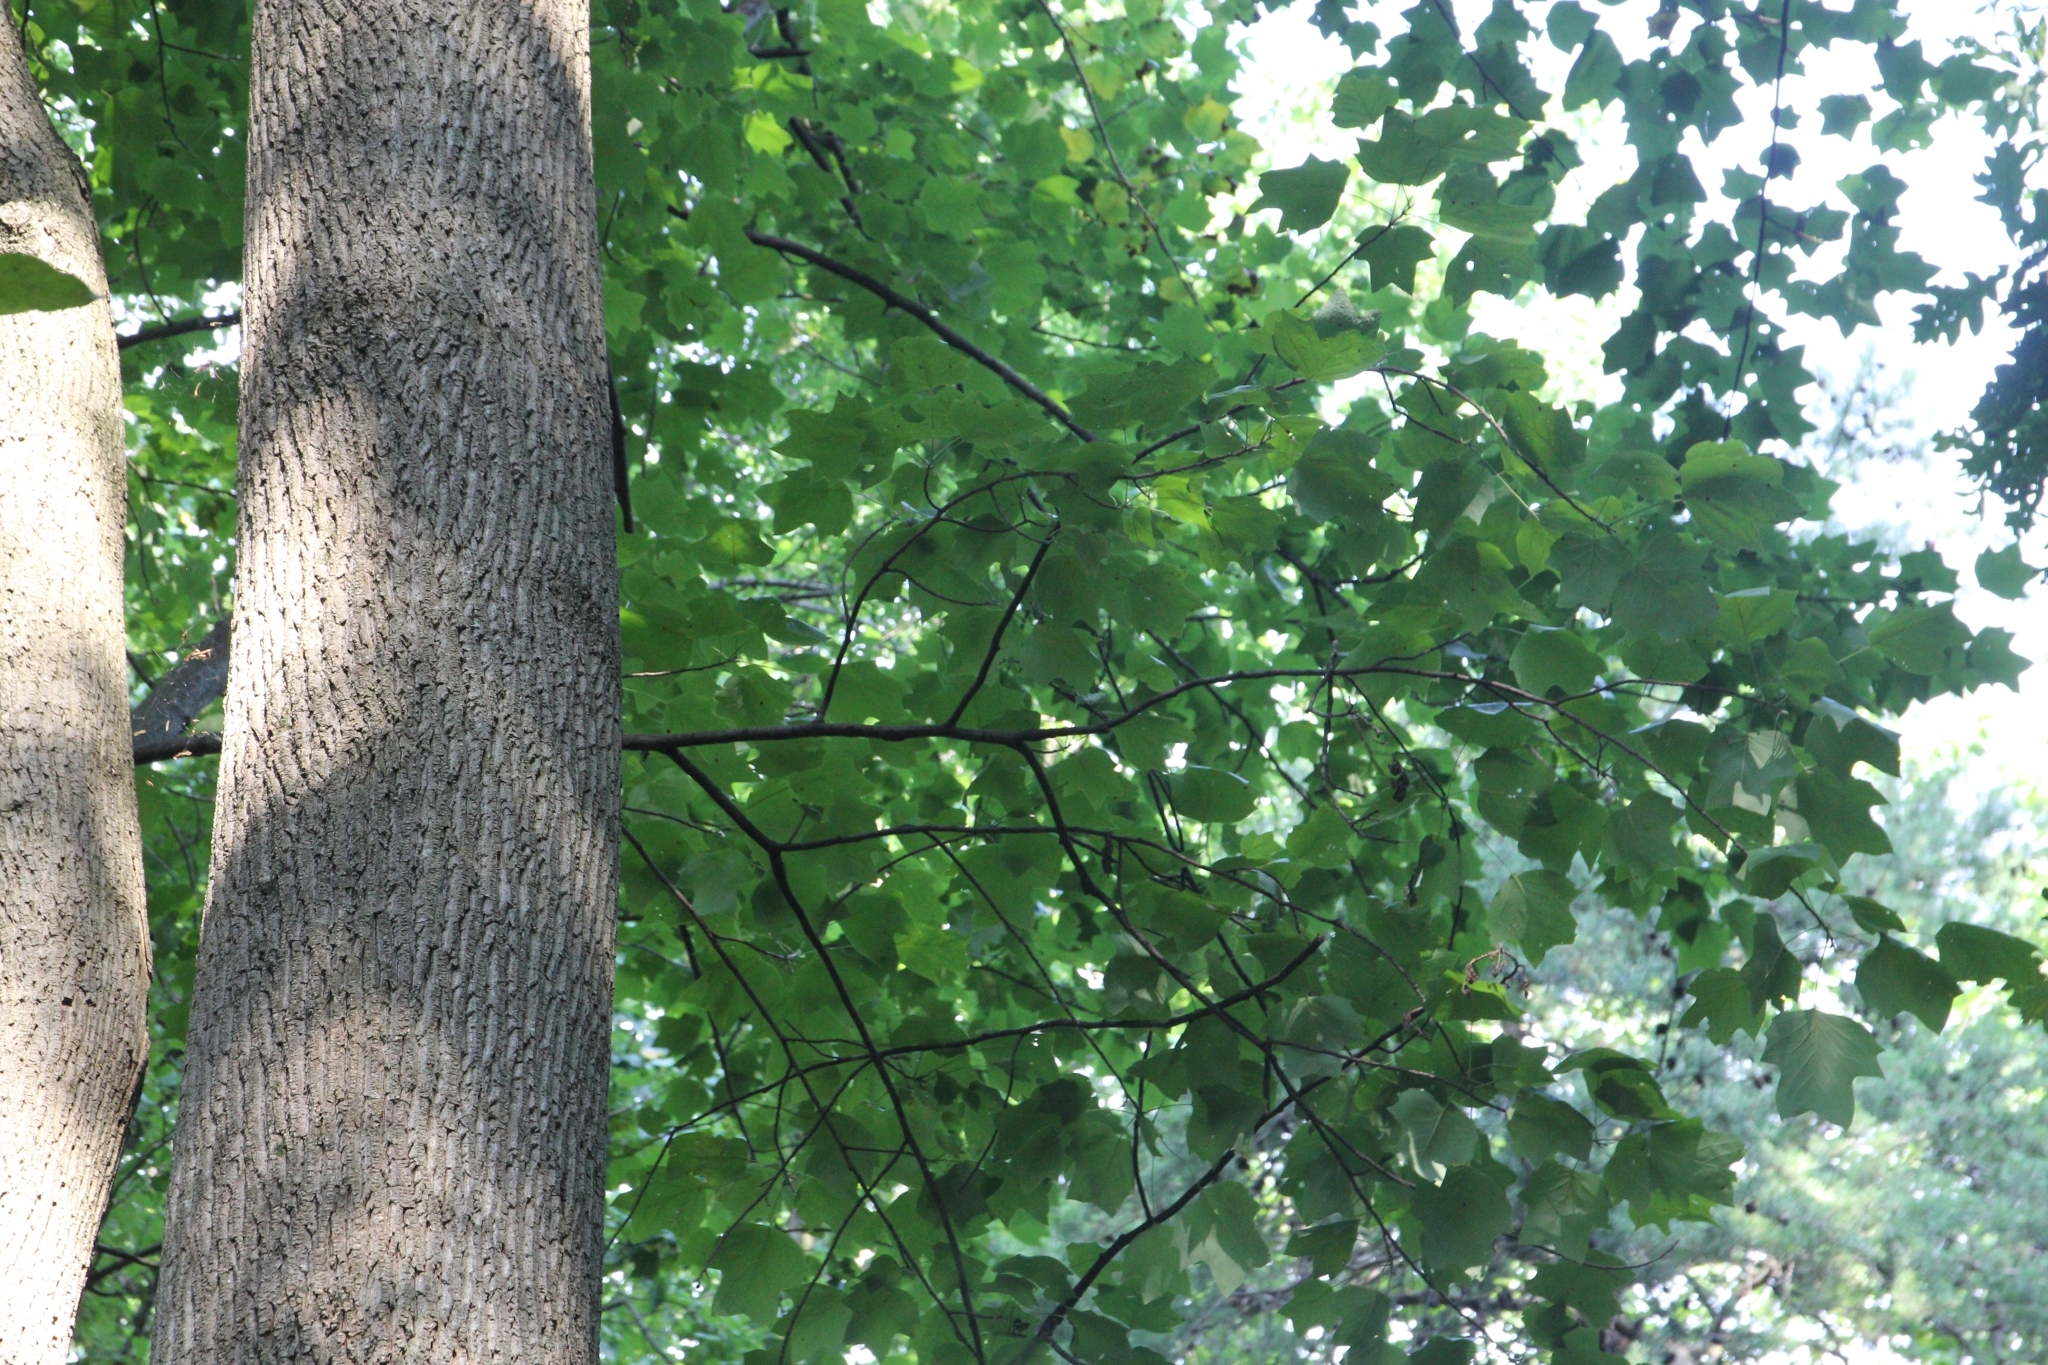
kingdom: Plantae
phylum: Tracheophyta
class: Magnoliopsida
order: Magnoliales
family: Magnoliaceae
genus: Liriodendron
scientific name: Liriodendron tulipifera
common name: Tulip tree
